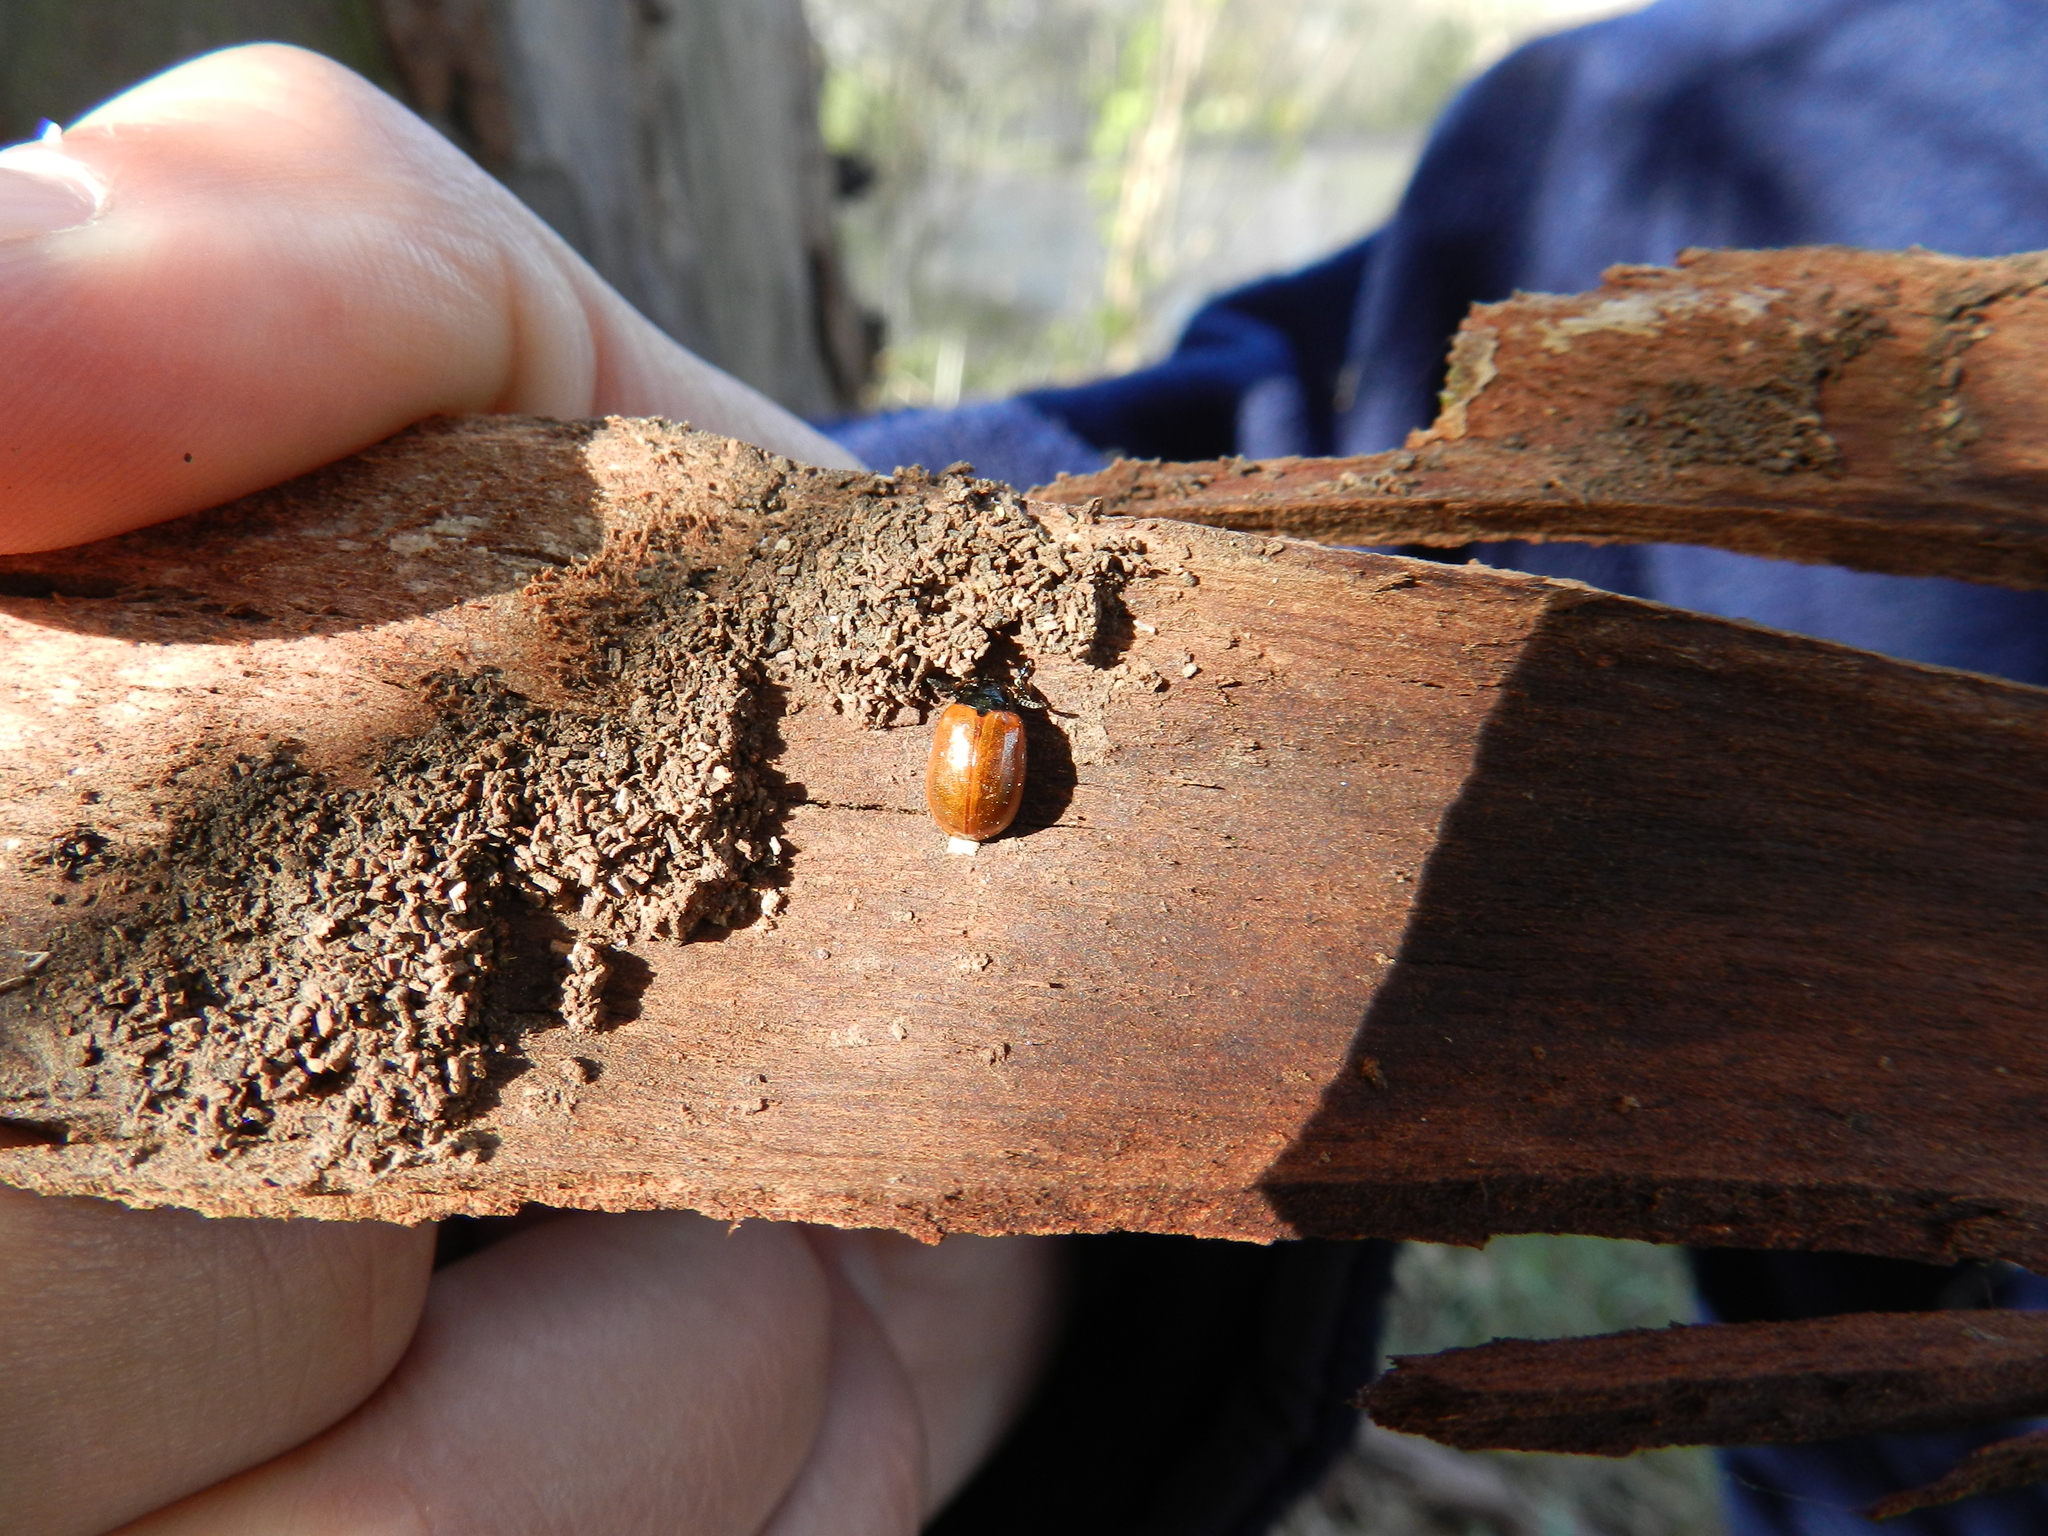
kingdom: Animalia
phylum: Arthropoda
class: Insecta
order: Coleoptera
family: Chrysomelidae
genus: Plagiodera
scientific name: Plagiodera
